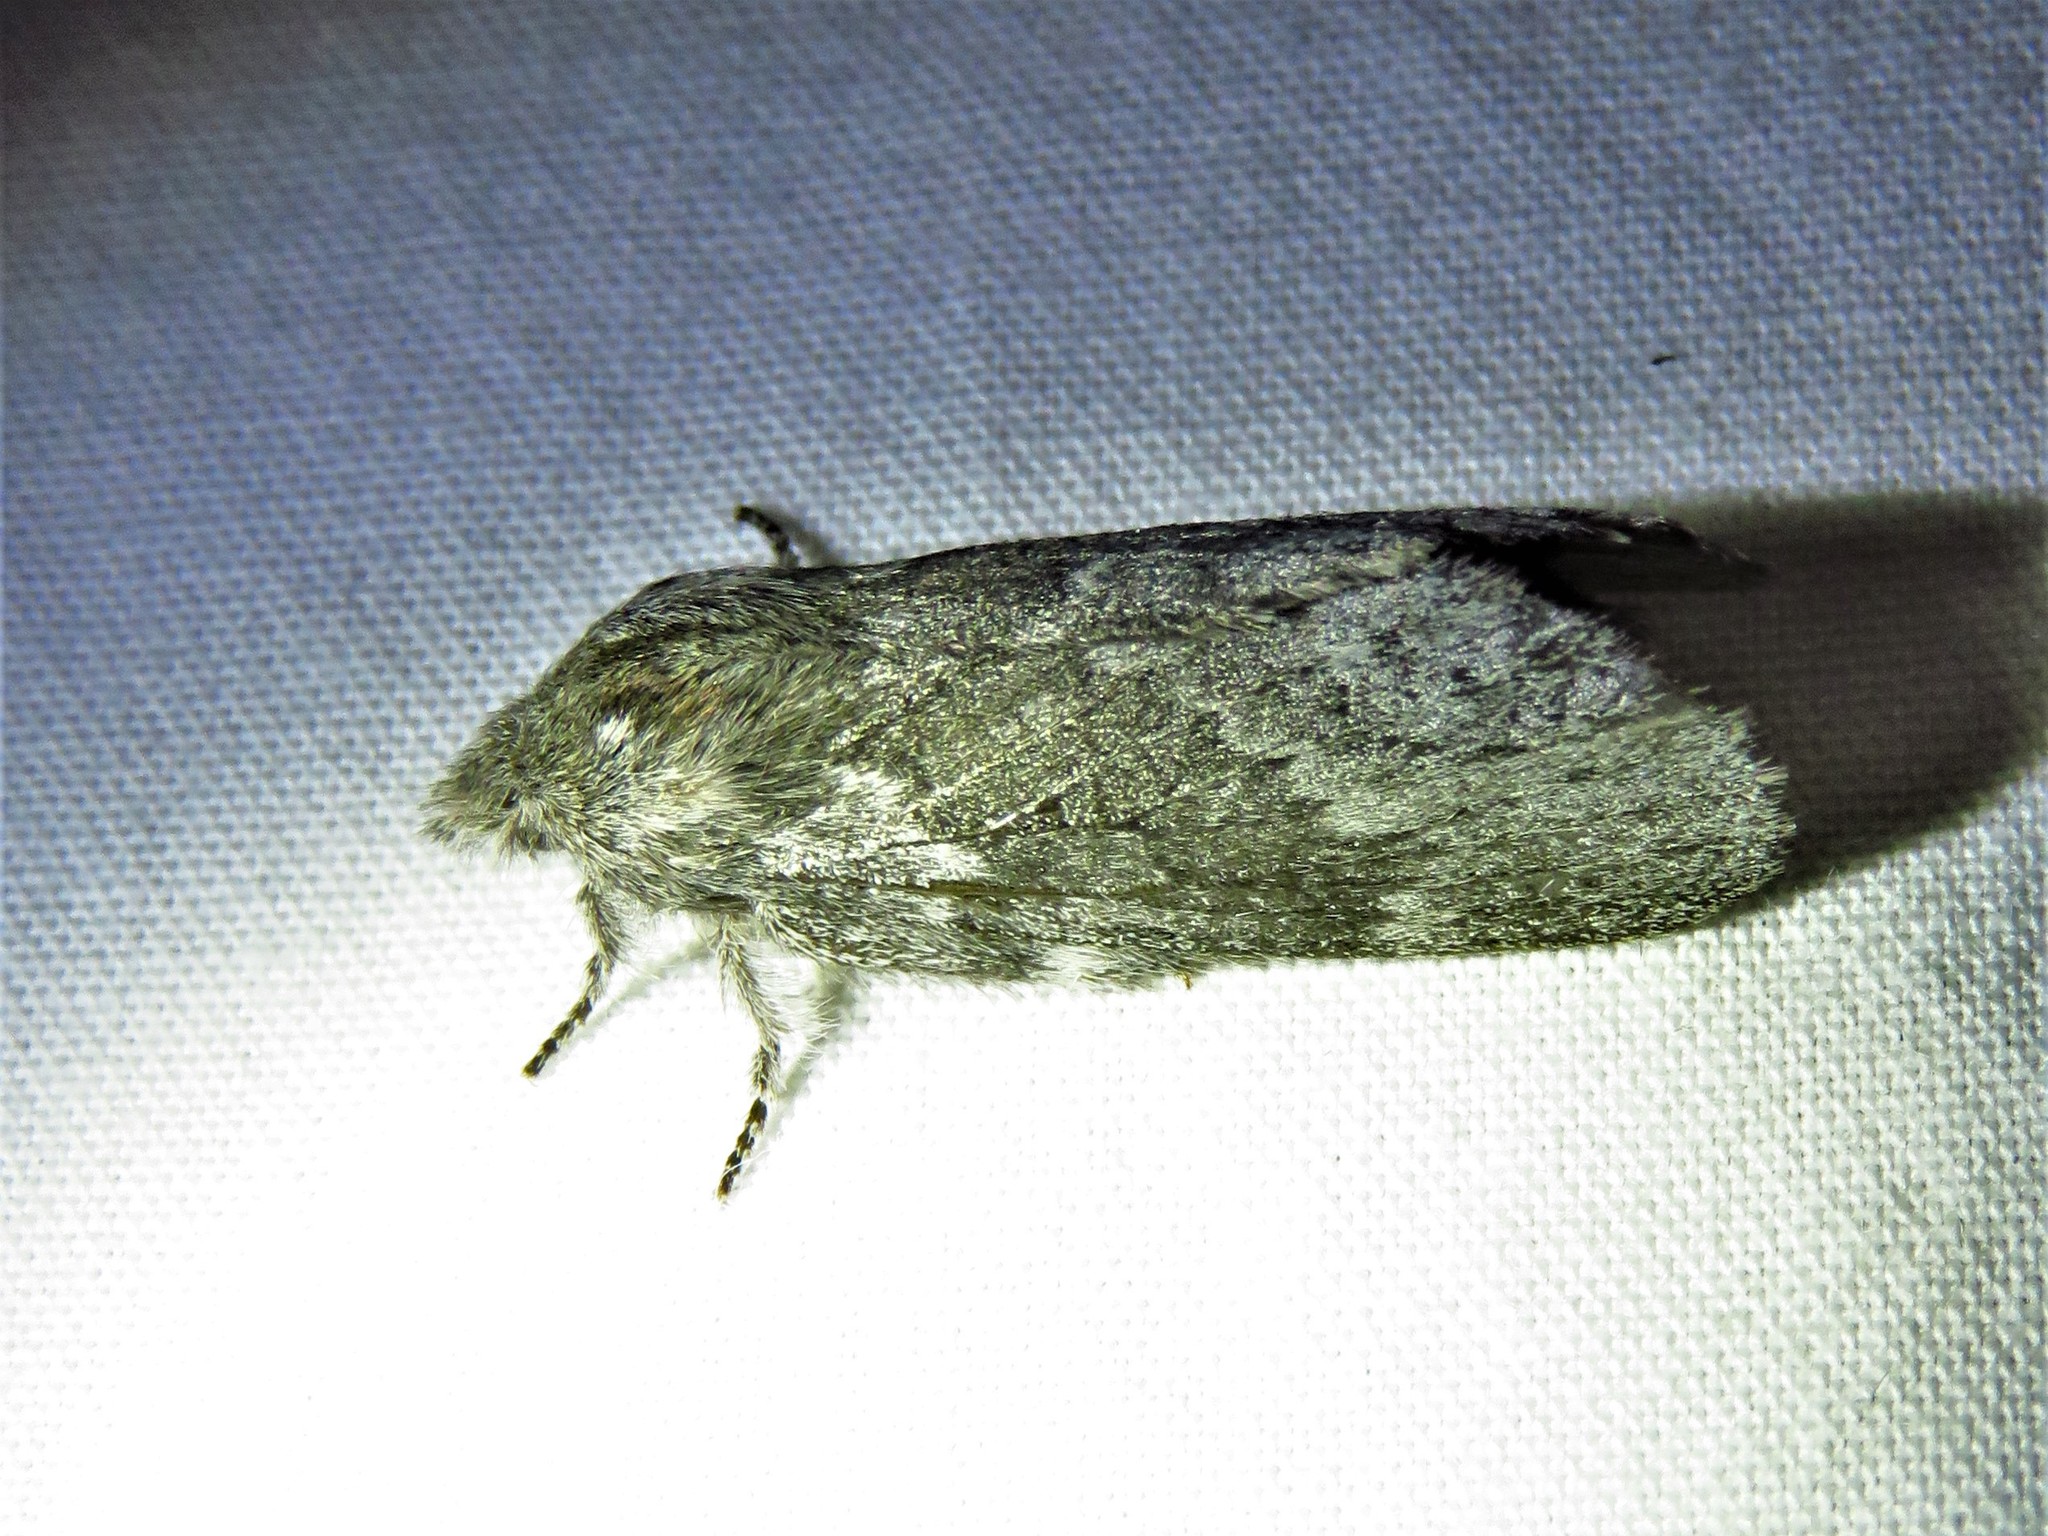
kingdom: Animalia
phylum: Arthropoda
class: Insecta
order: Lepidoptera
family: Lasiocampidae
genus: Heteropacha
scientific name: Heteropacha rileyana
